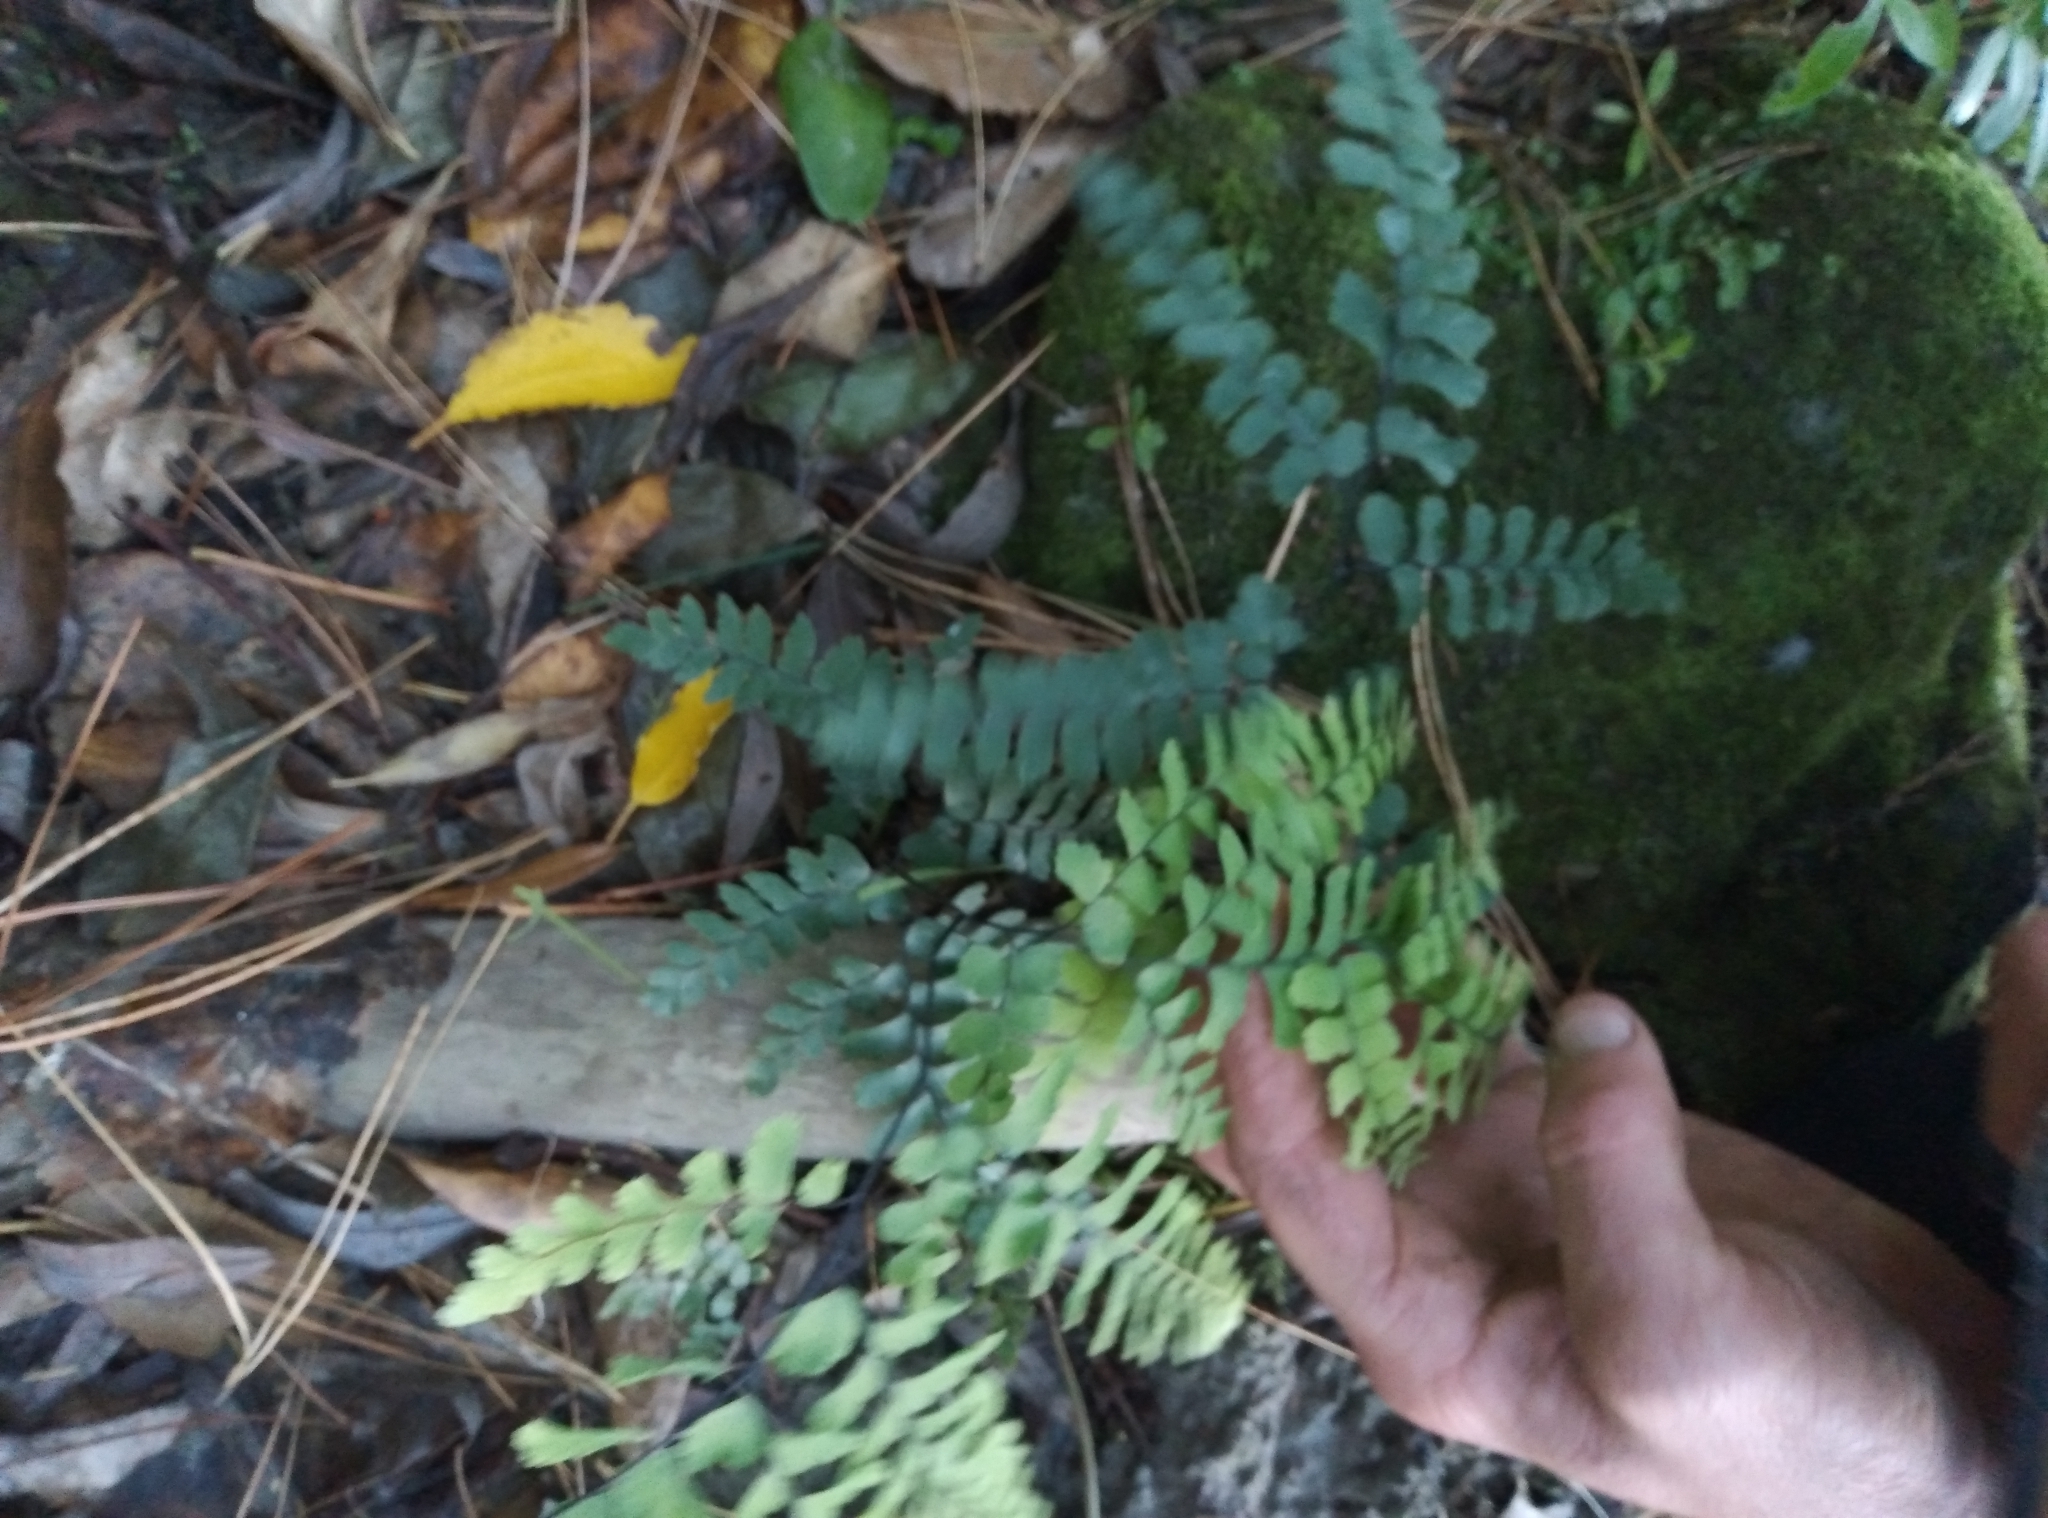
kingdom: Plantae
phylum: Tracheophyta
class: Polypodiopsida
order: Polypodiales
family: Pteridaceae
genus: Adiantum
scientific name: Adiantum cunninghamii
